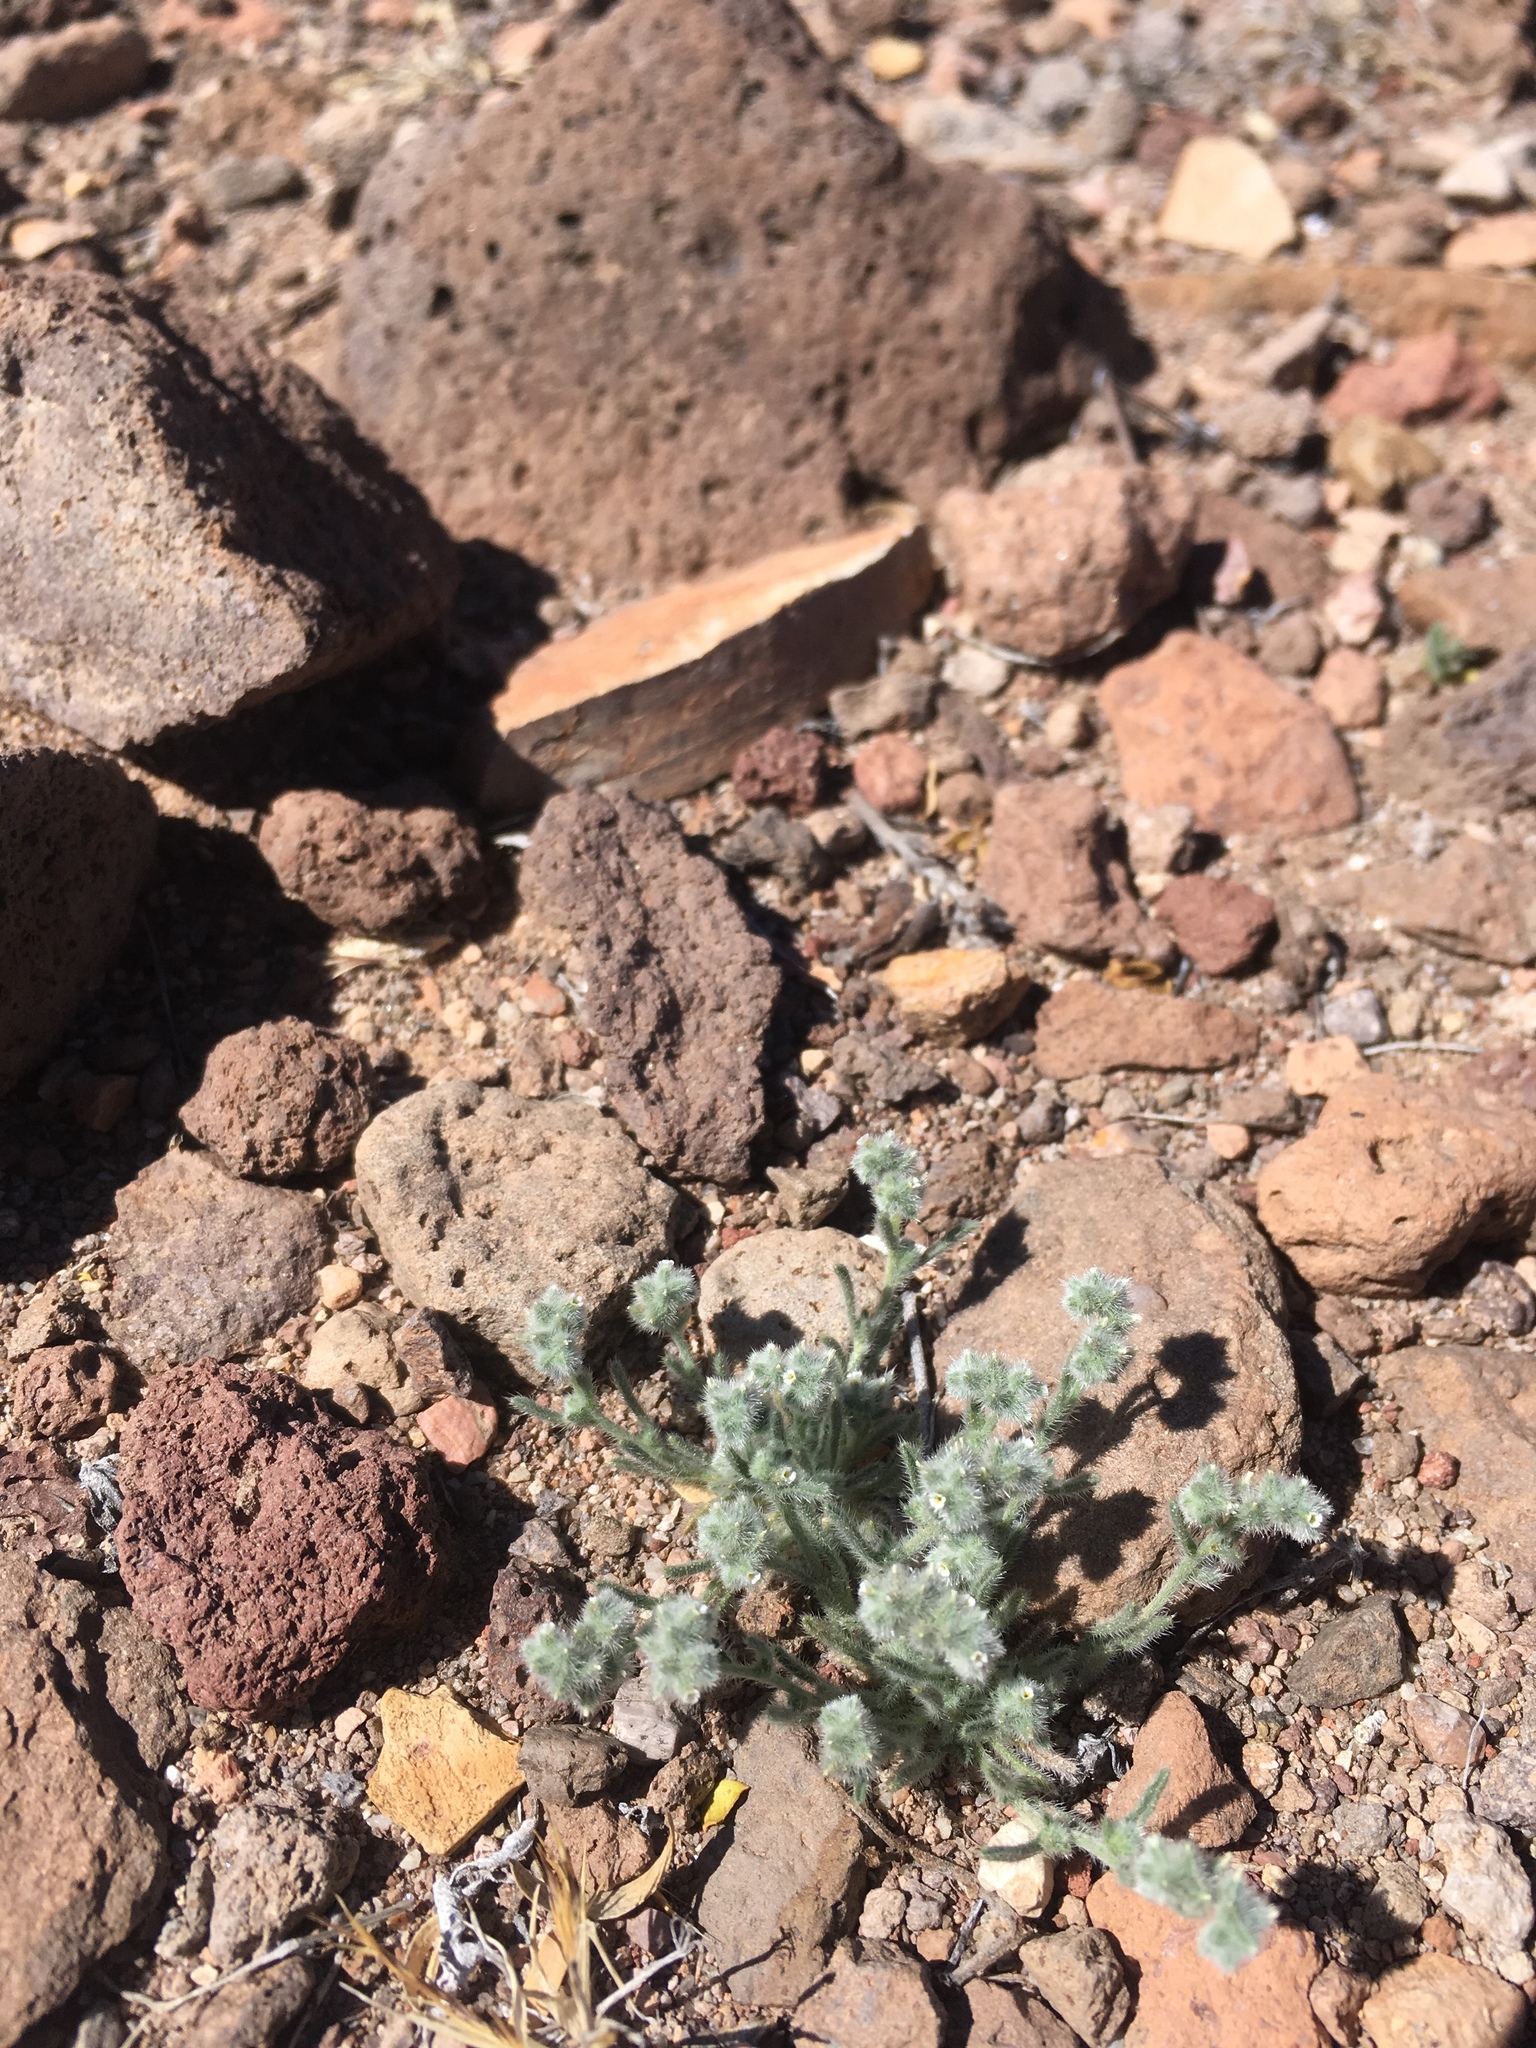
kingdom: Plantae
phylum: Tracheophyta
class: Magnoliopsida
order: Boraginales
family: Boraginaceae
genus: Johnstonella
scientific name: Johnstonella pusilla
